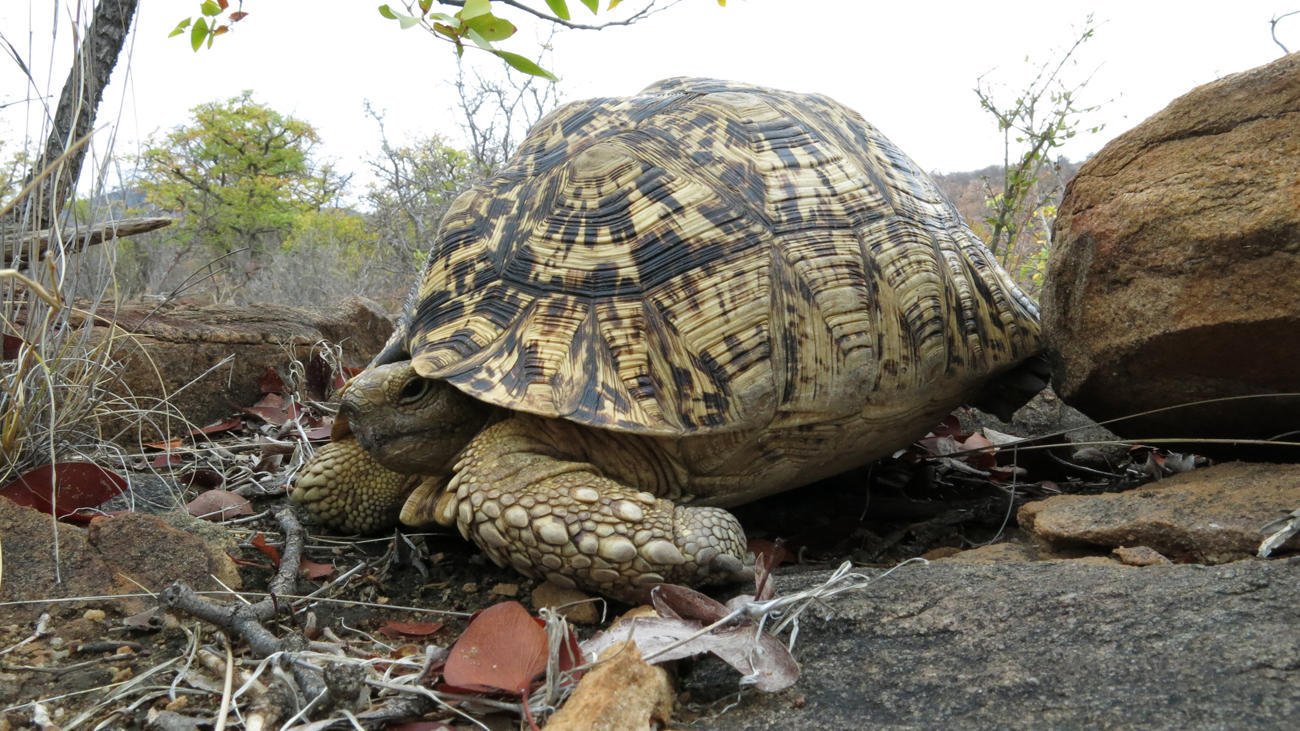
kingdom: Animalia
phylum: Chordata
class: Testudines
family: Testudinidae
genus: Stigmochelys
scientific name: Stigmochelys pardalis
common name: Leopard tortoise
